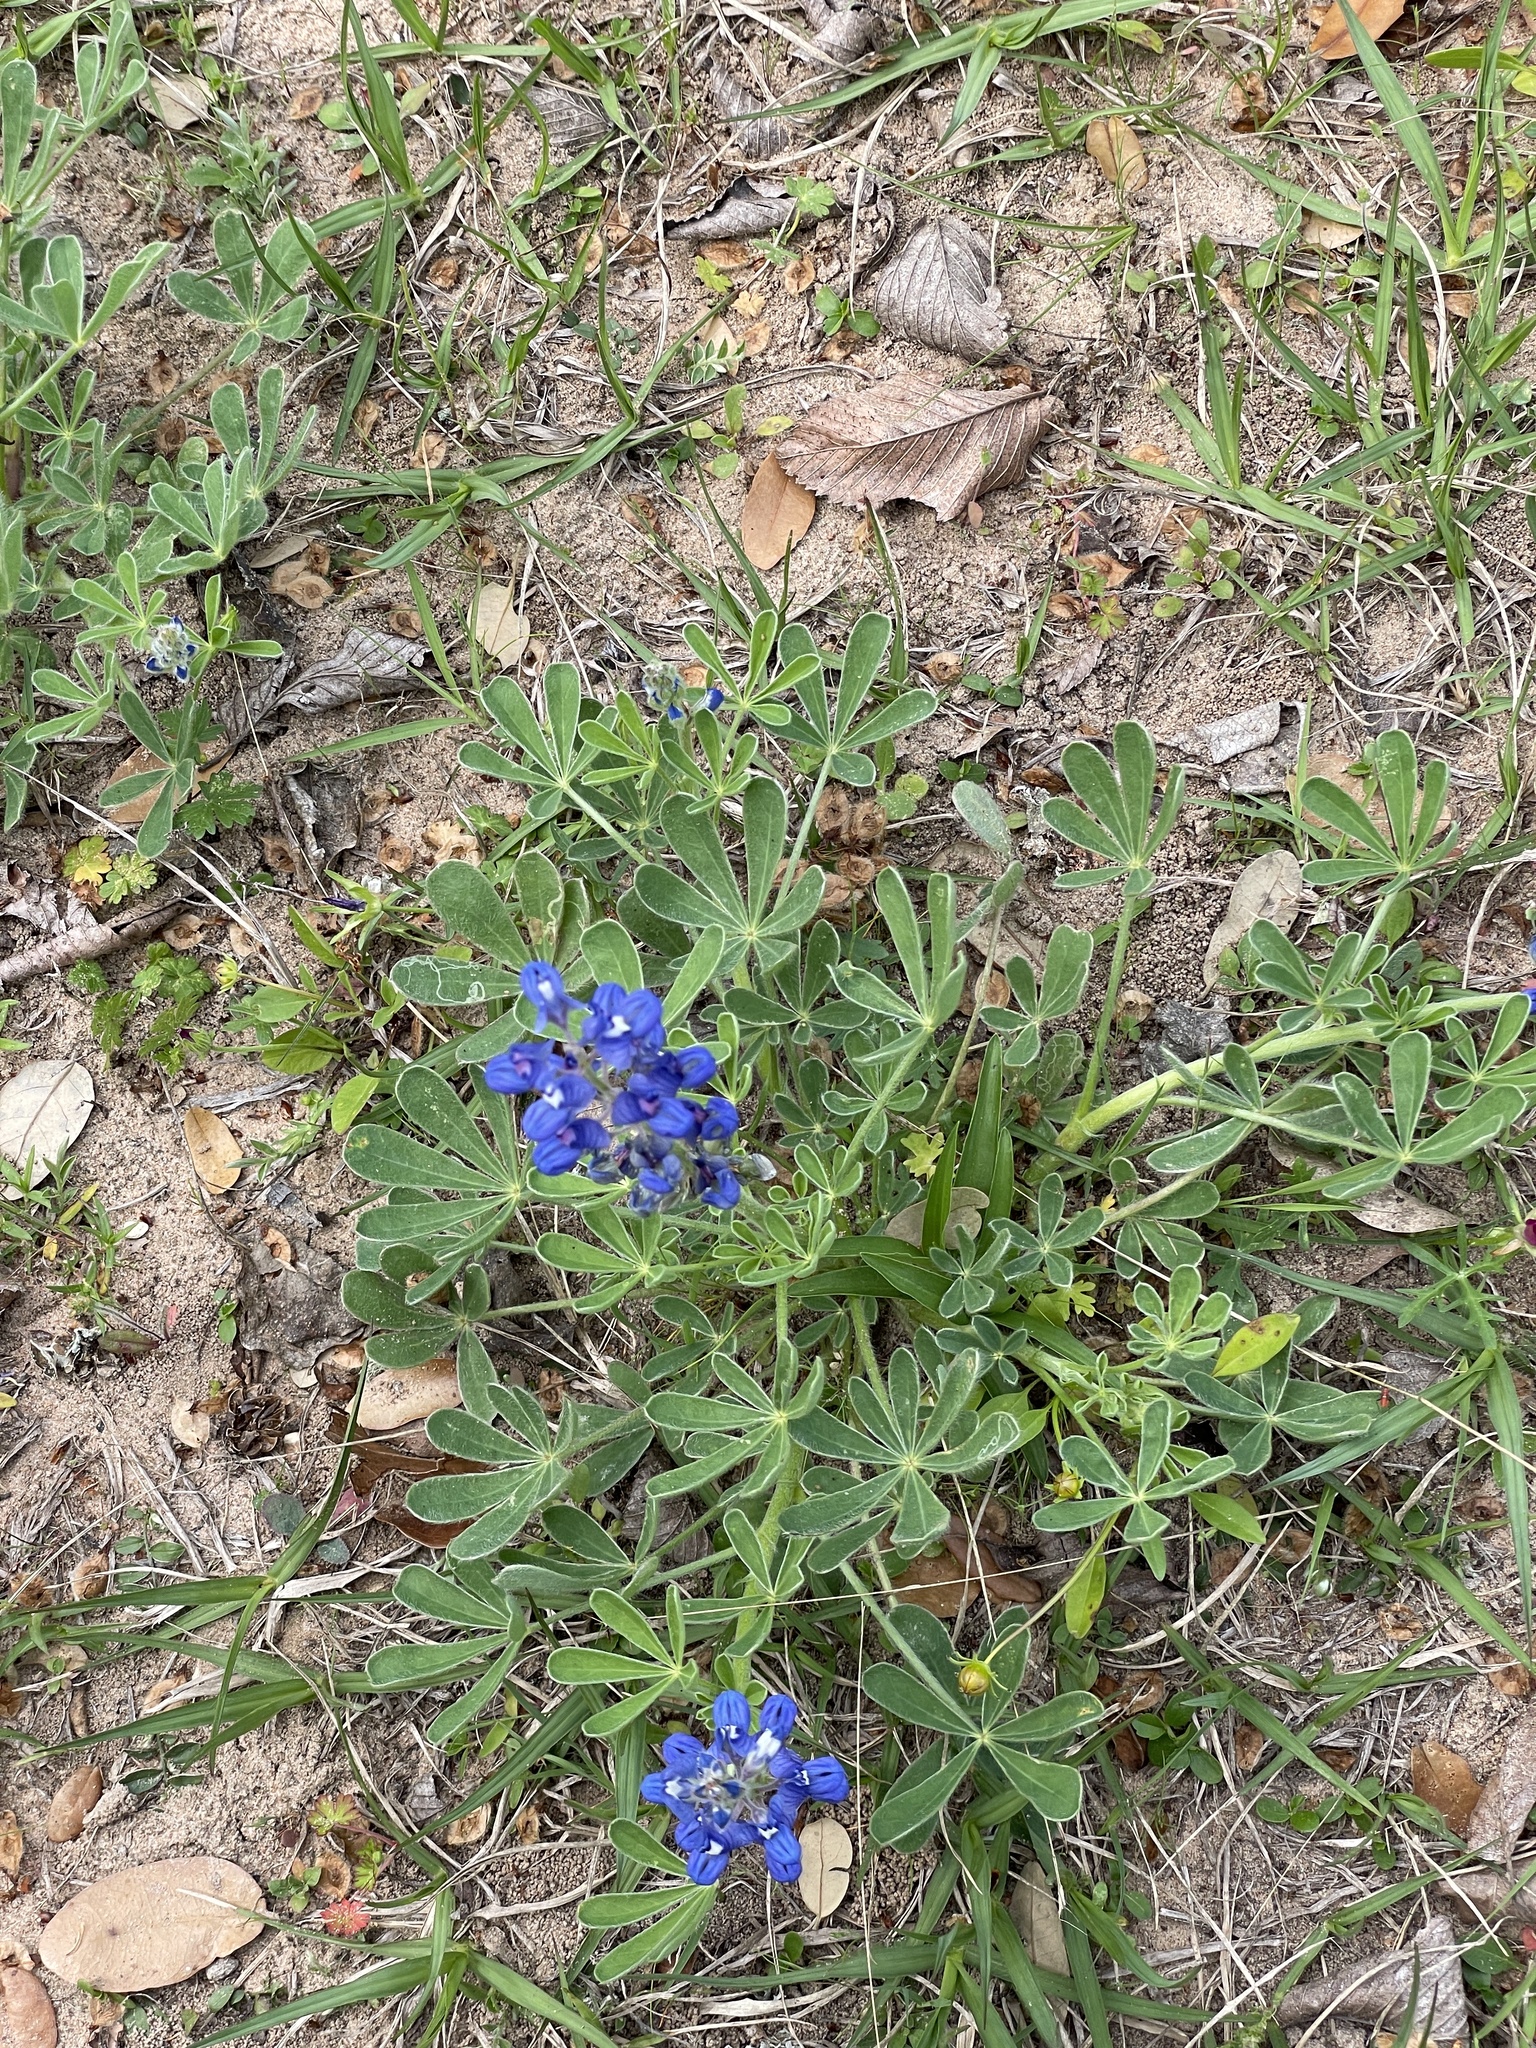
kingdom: Plantae
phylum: Tracheophyta
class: Magnoliopsida
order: Fabales
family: Fabaceae
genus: Lupinus
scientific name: Lupinus subcarnosus
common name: Texas bluebonnet
